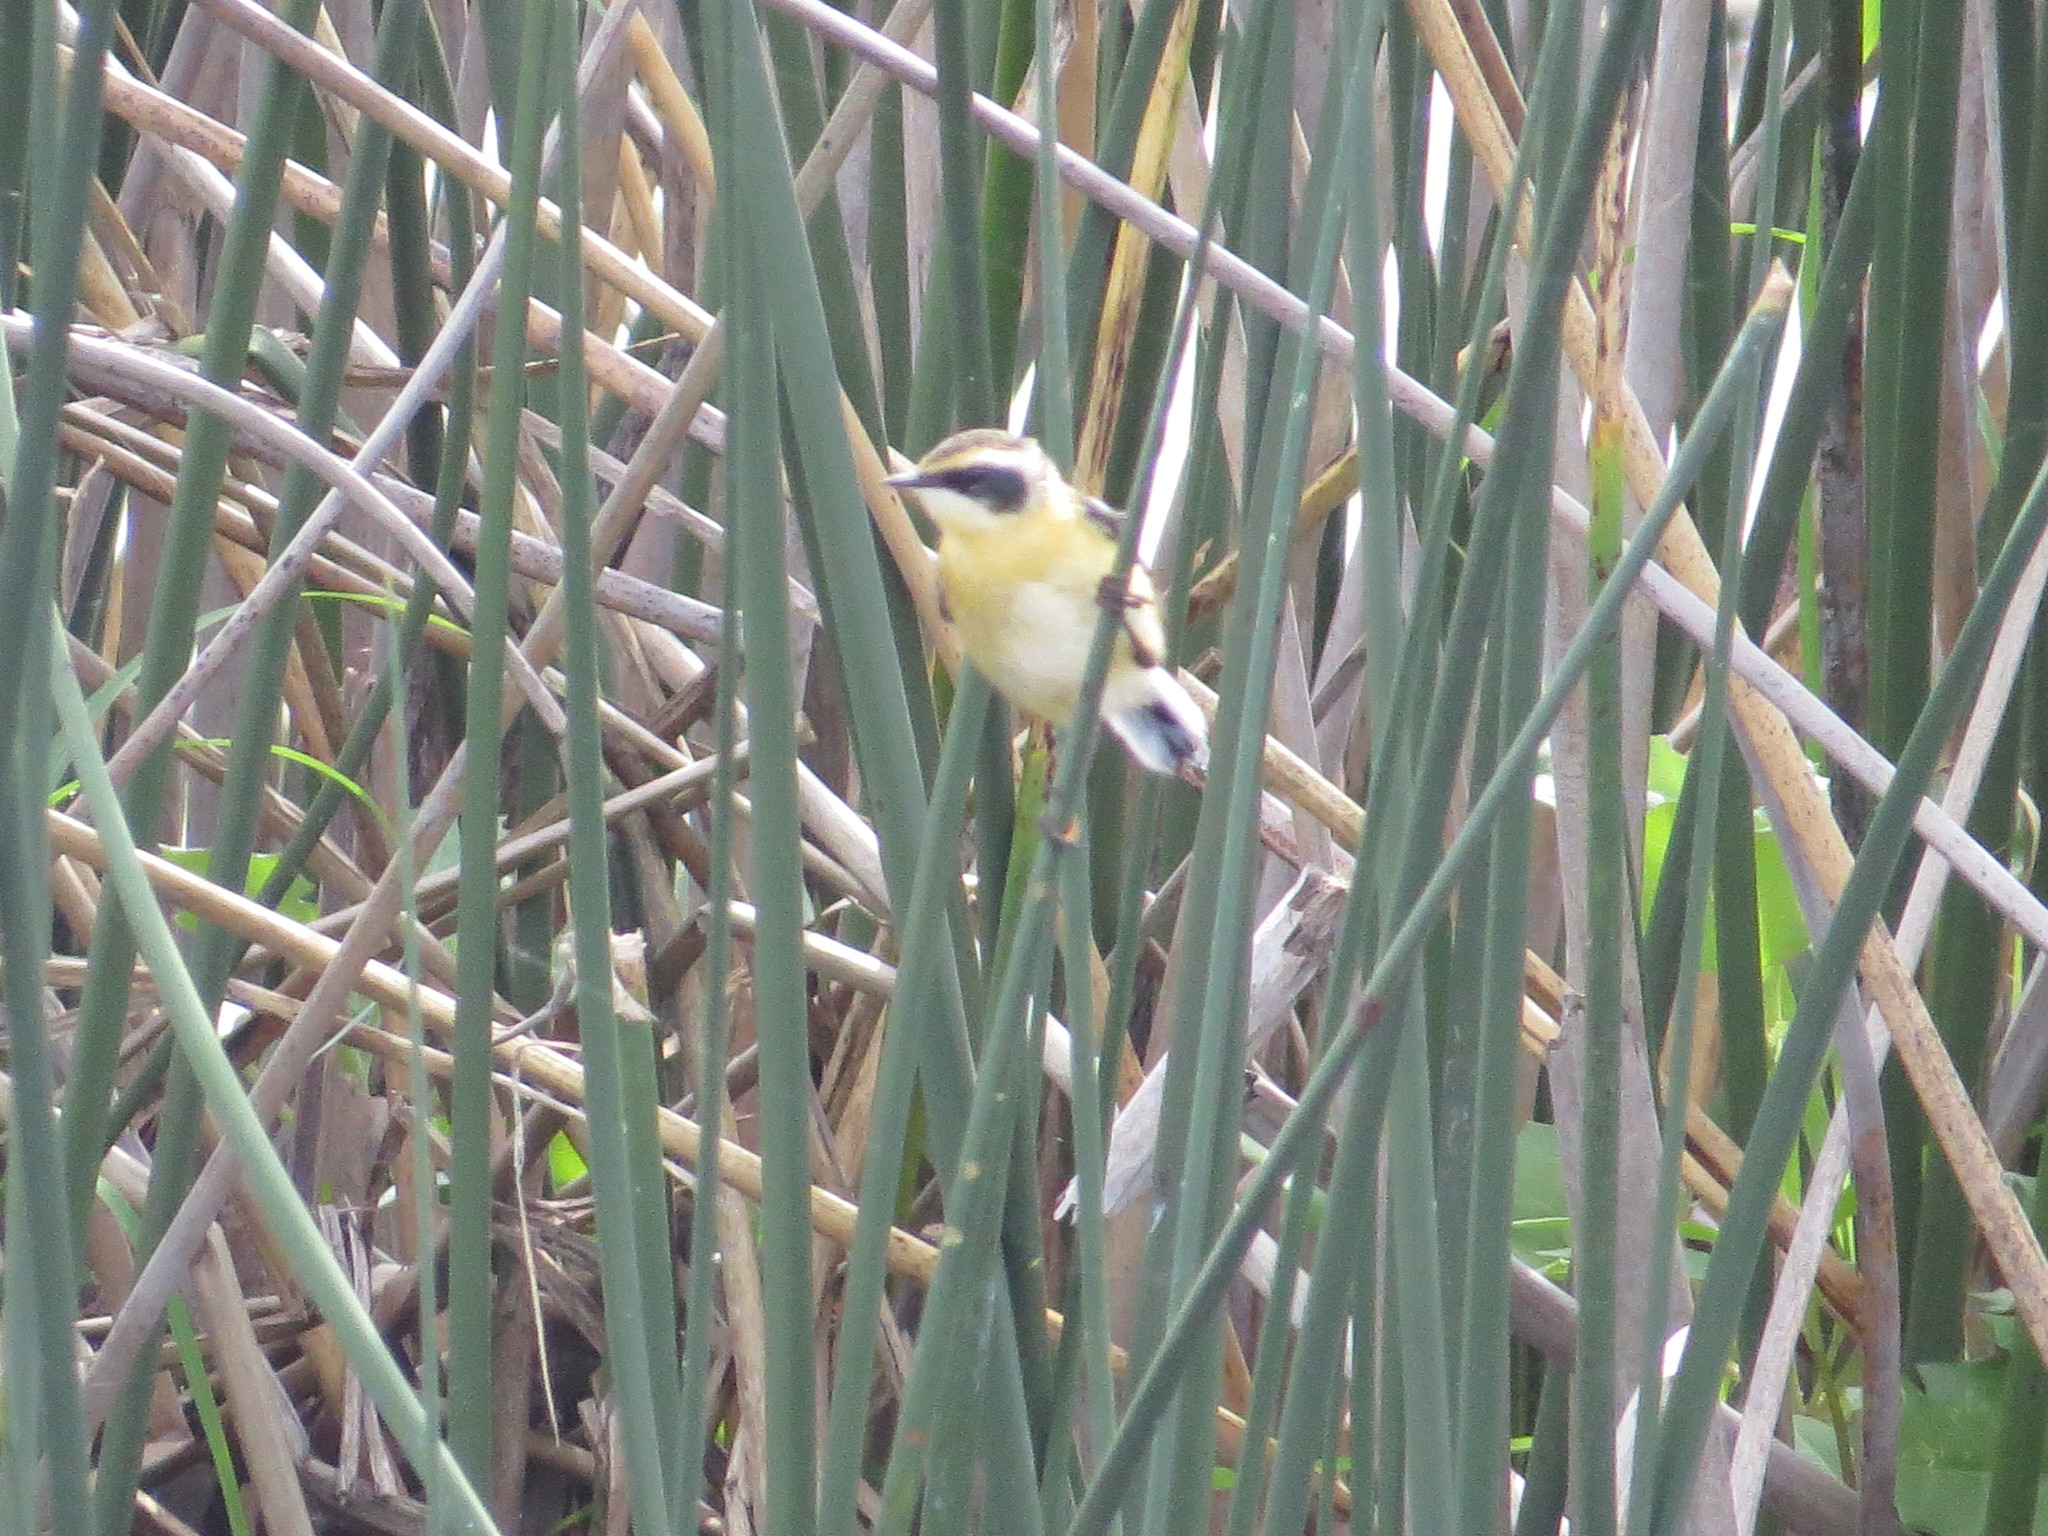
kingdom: Animalia
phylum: Chordata
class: Aves
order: Passeriformes
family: Tyrannidae
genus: Tachuris
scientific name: Tachuris rubrigastra
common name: Many-colored rush tyrant
